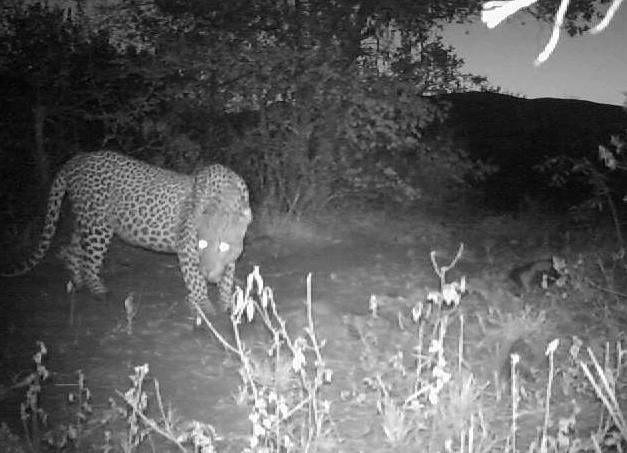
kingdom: Animalia
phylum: Chordata
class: Mammalia
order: Carnivora
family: Felidae
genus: Panthera
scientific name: Panthera pardus
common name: Leopard
